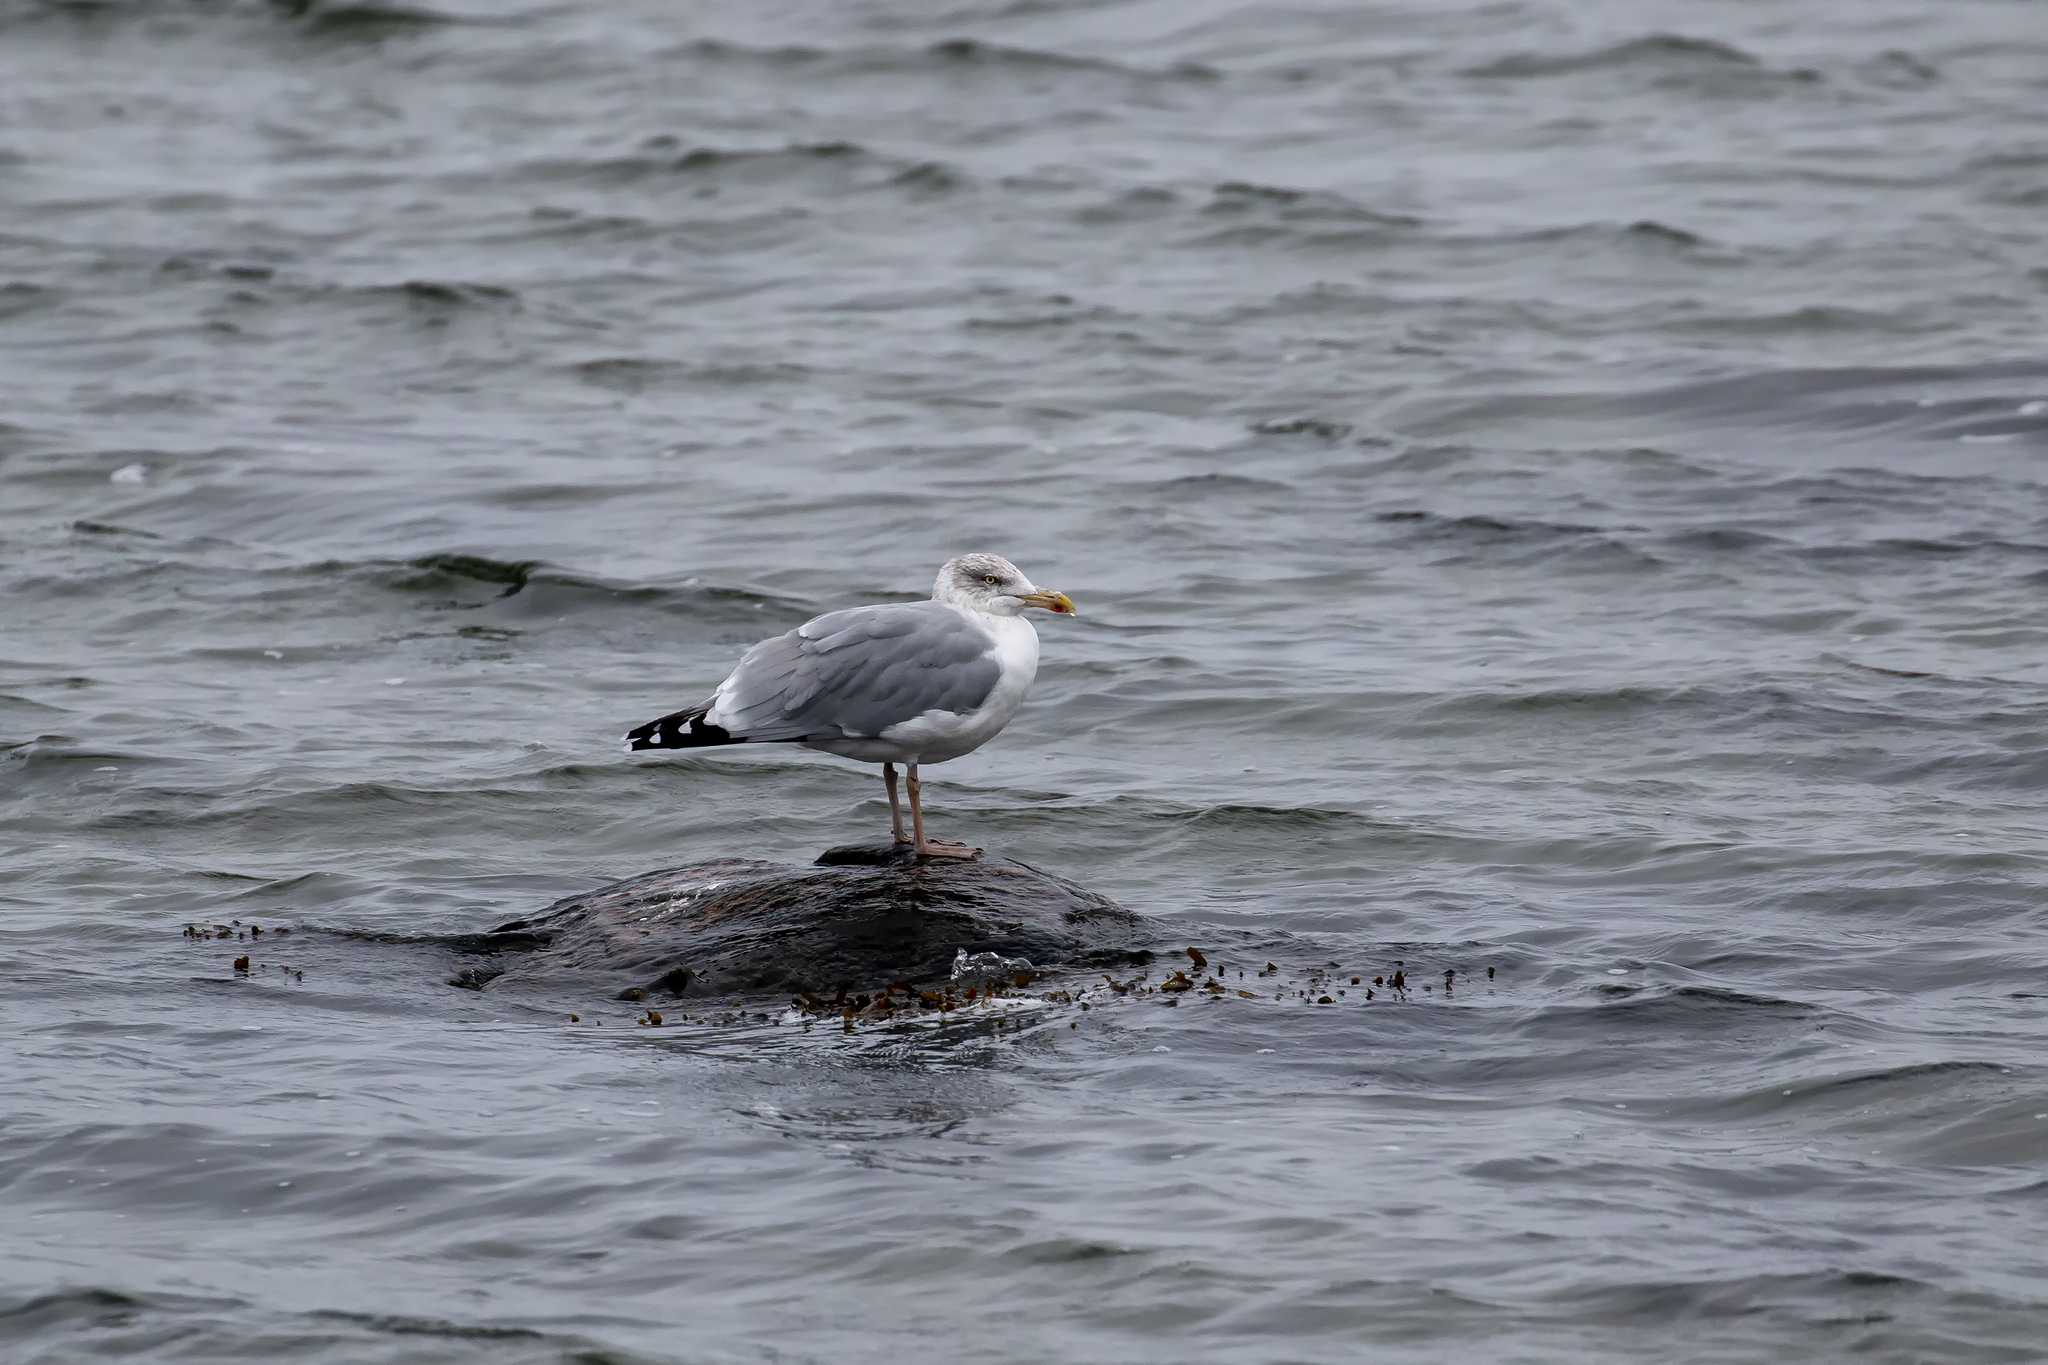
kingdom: Animalia
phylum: Chordata
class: Aves
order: Charadriiformes
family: Laridae
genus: Larus
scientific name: Larus argentatus
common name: Herring gull
